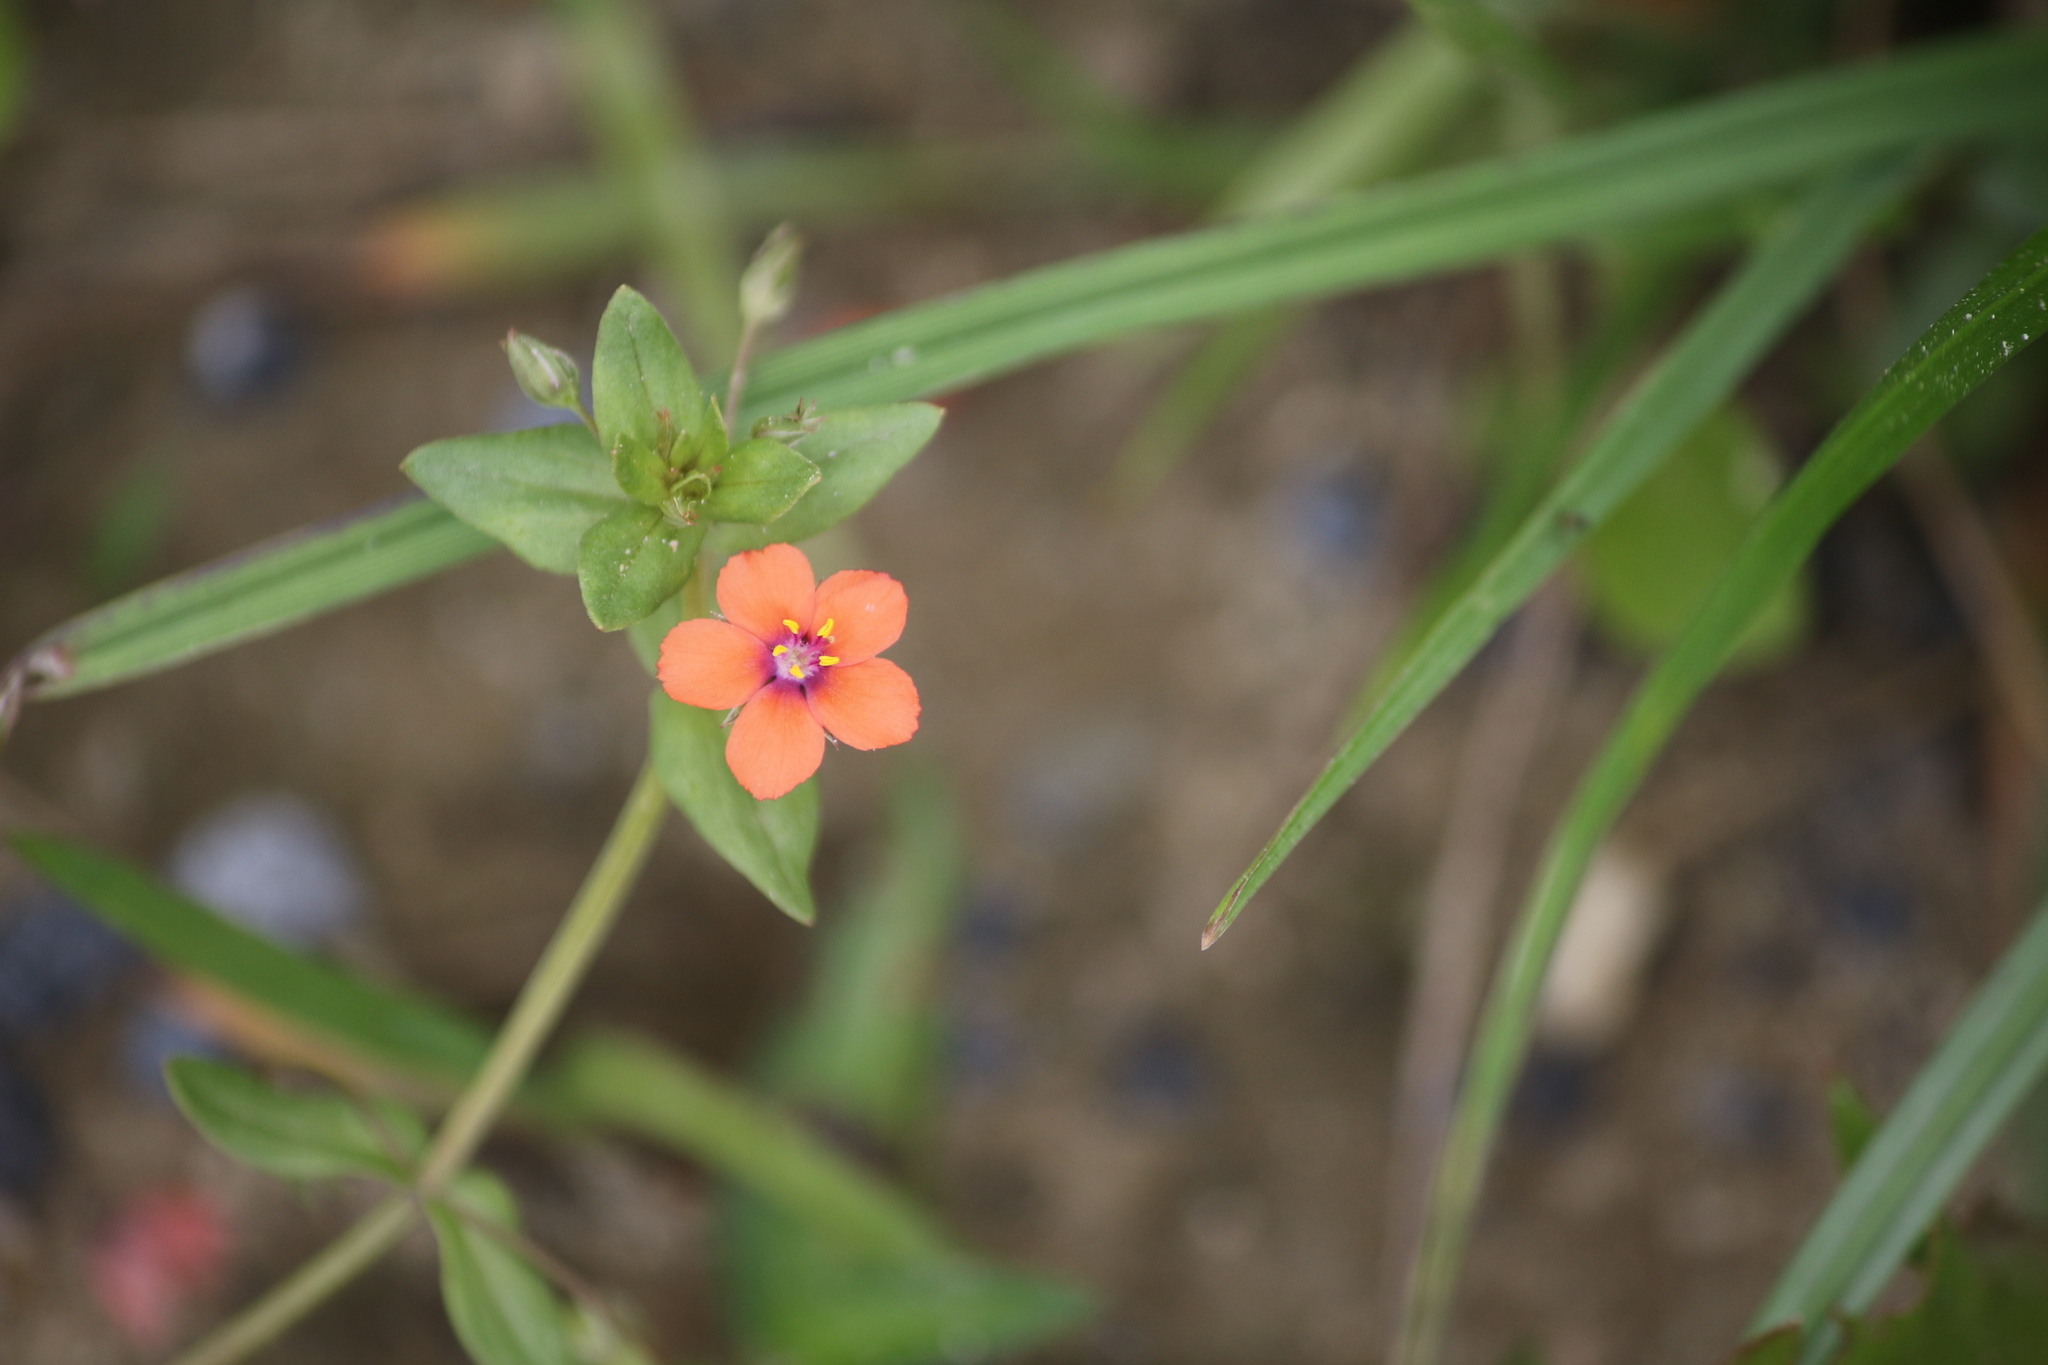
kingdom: Plantae
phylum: Tracheophyta
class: Magnoliopsida
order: Ericales
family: Primulaceae
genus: Lysimachia
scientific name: Lysimachia arvensis
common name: Scarlet pimpernel
